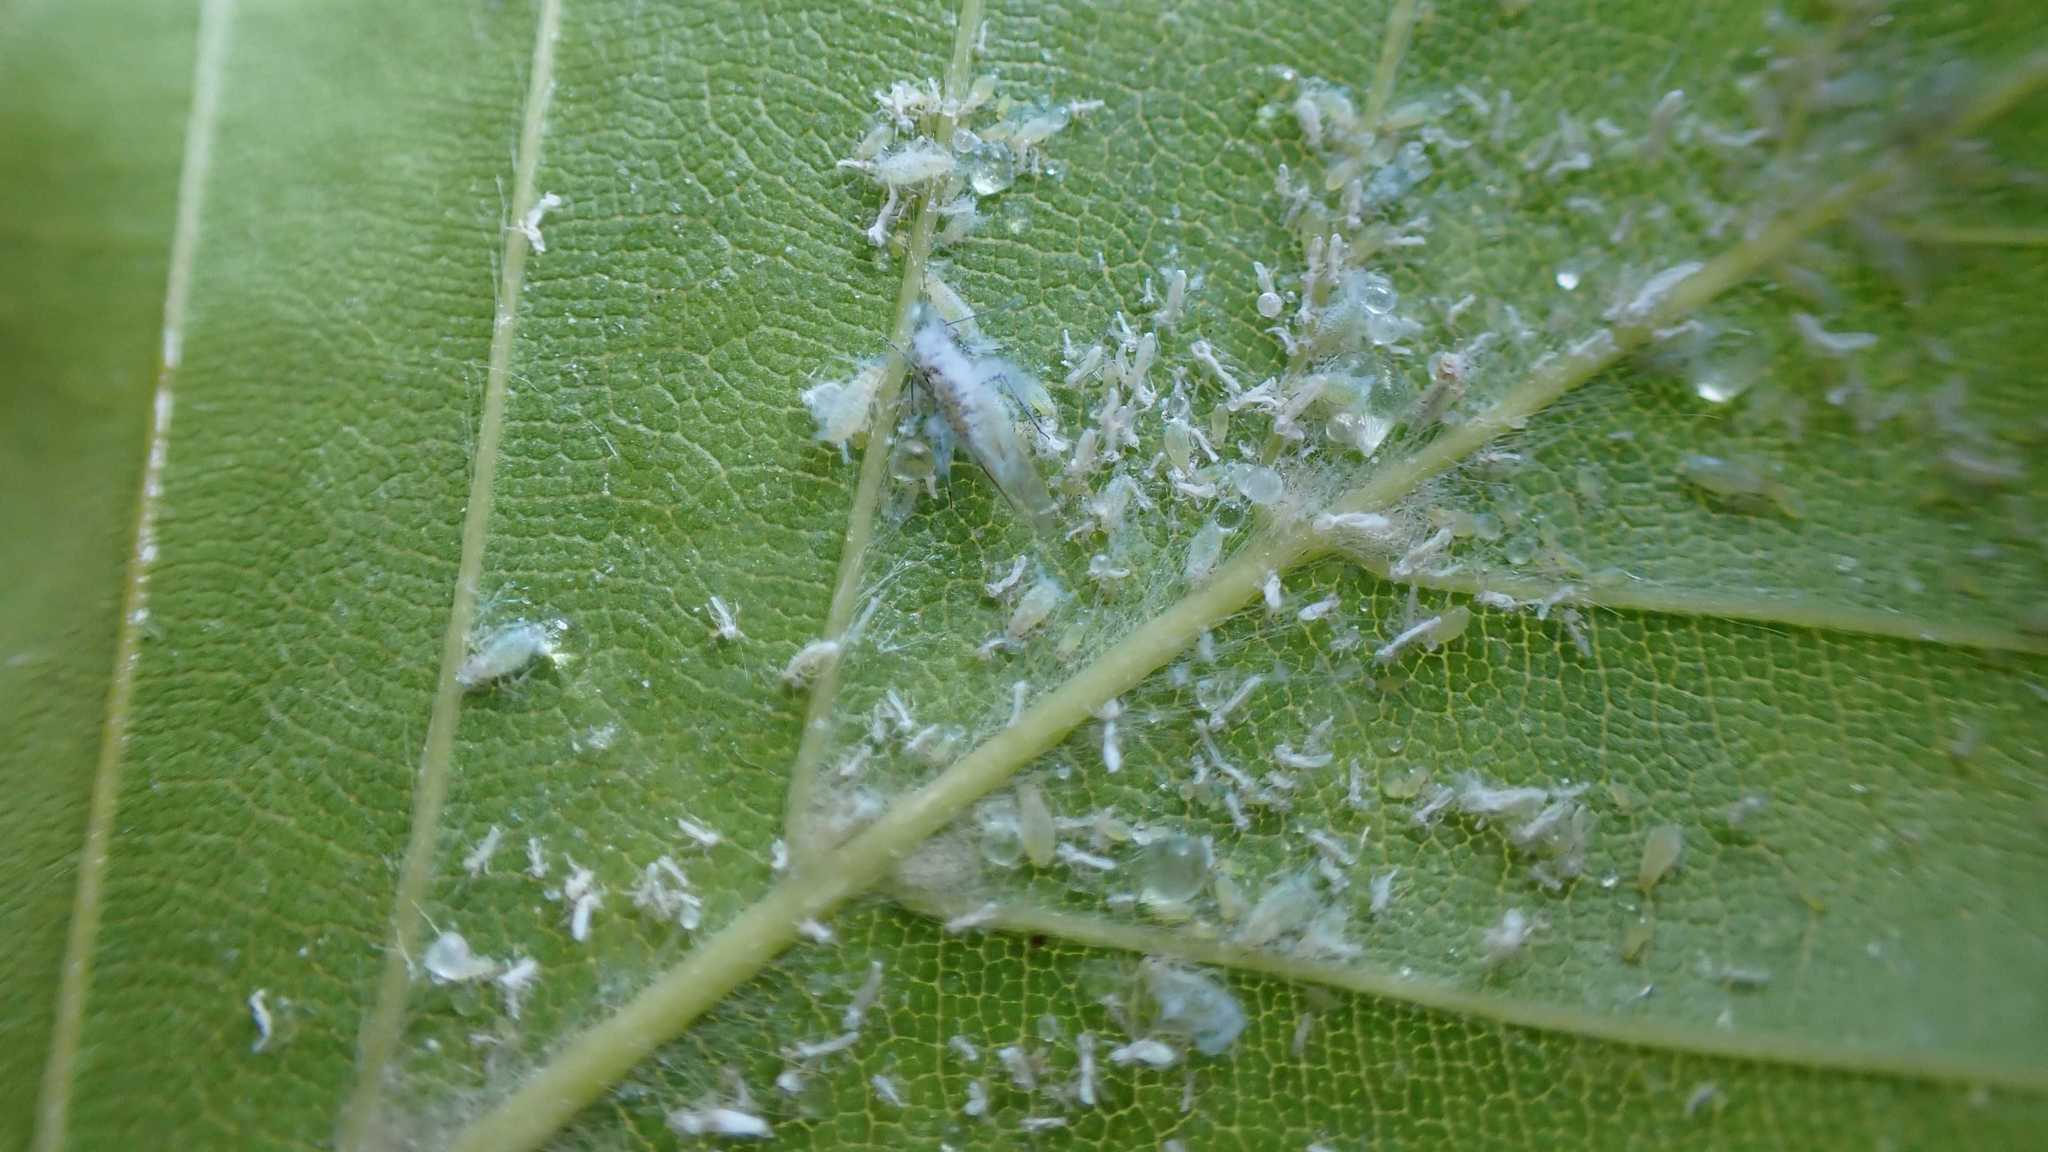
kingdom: Animalia
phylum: Arthropoda
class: Insecta
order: Hemiptera
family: Aphididae
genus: Phyllaphis
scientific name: Phyllaphis fagi
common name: Beech aphid
